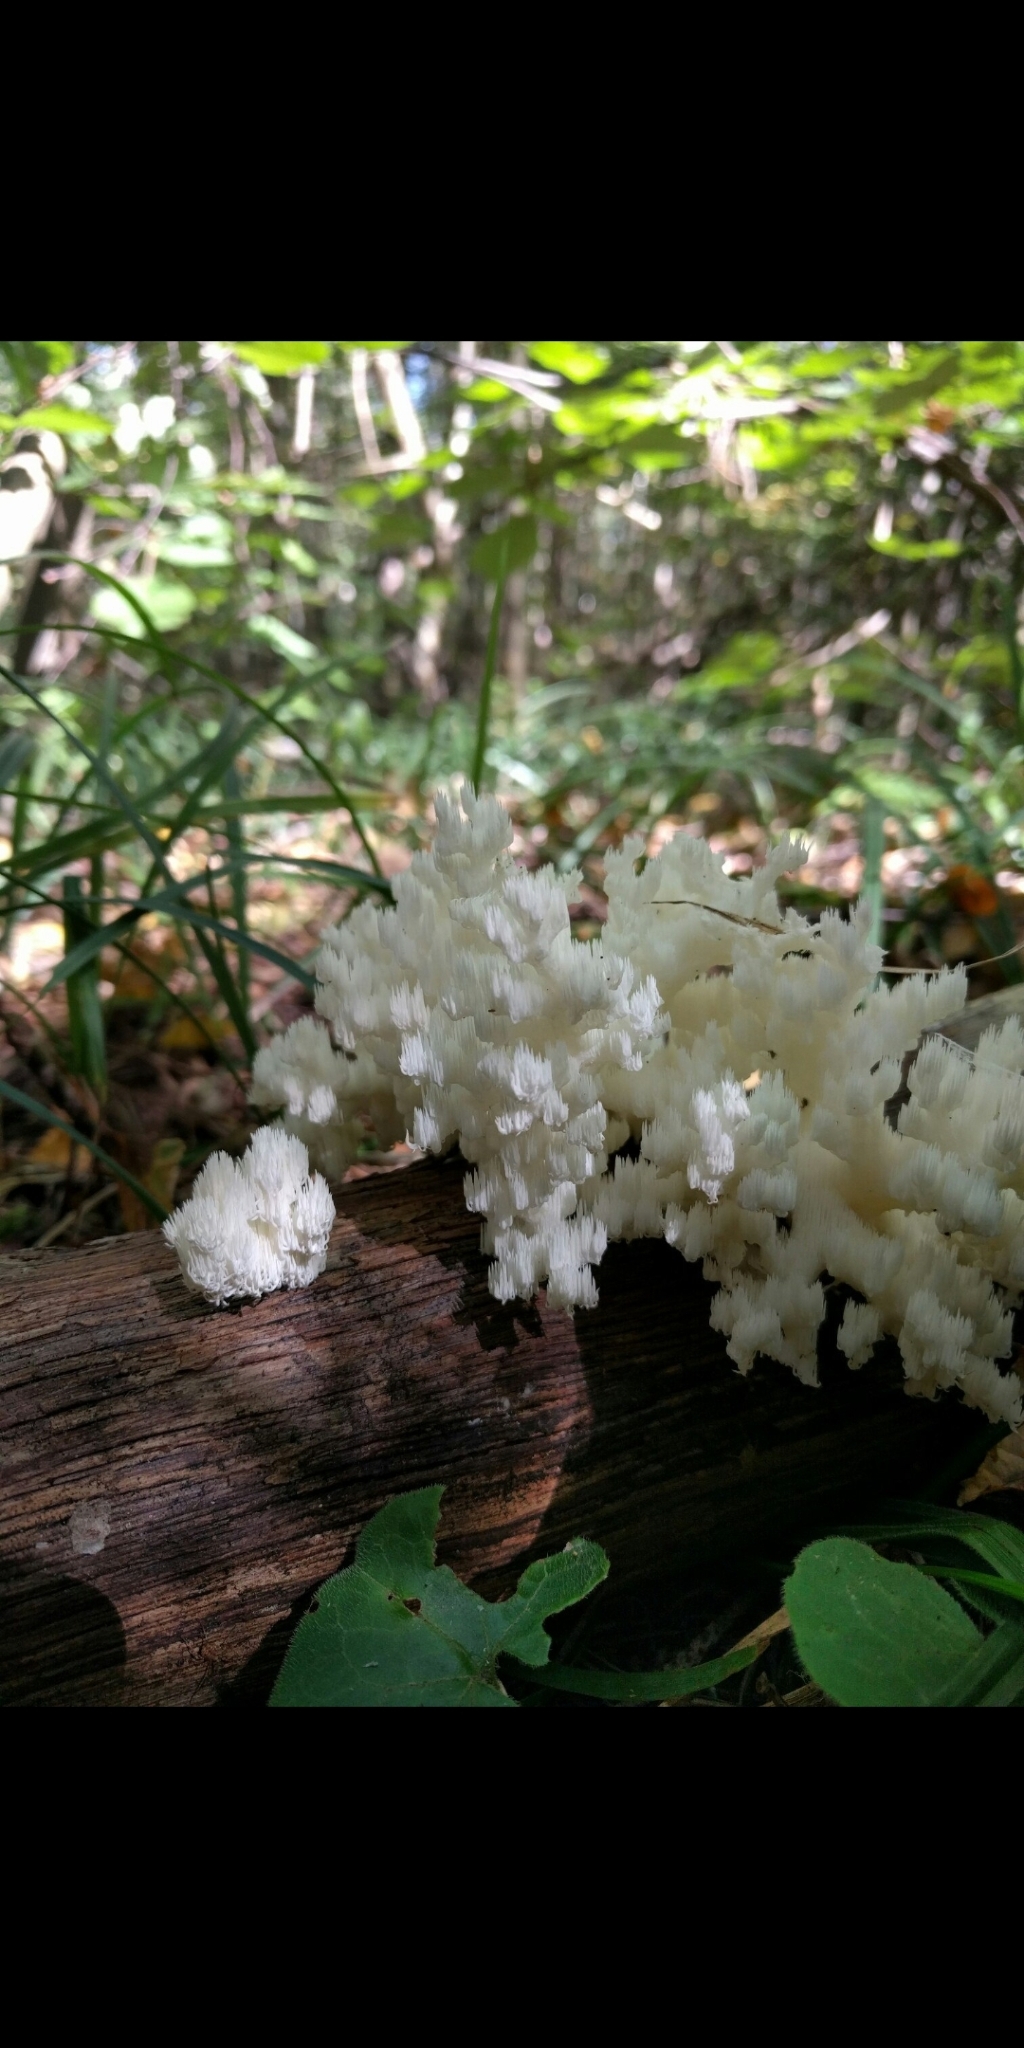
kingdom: Fungi
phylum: Basidiomycota
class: Agaricomycetes
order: Russulales
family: Hericiaceae
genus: Hericium
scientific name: Hericium coralloides
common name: Coral tooth
